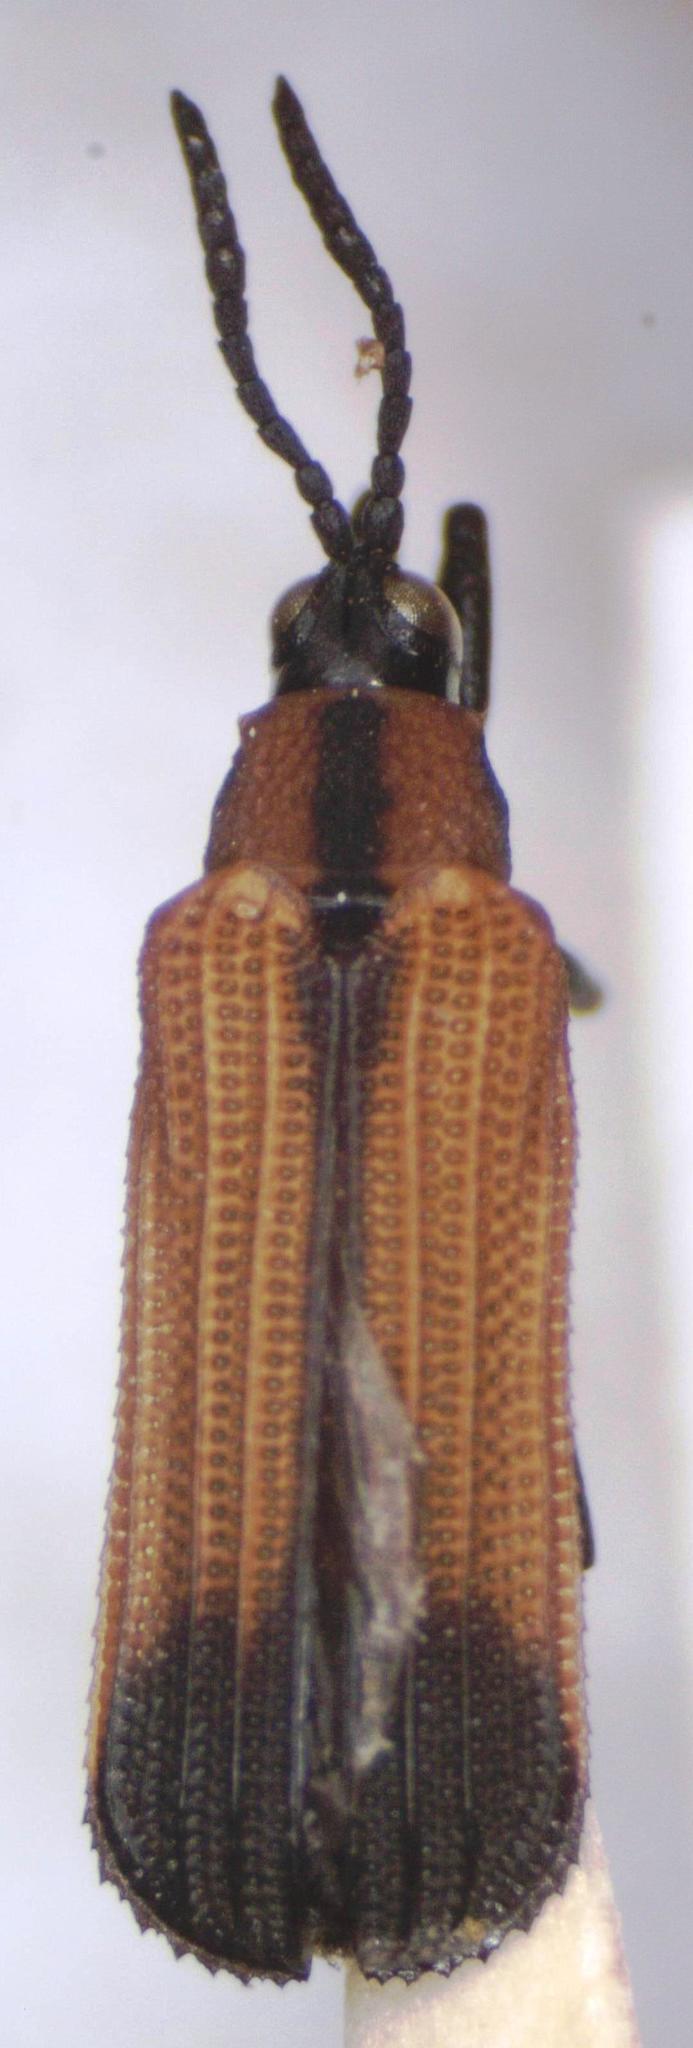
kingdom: Animalia
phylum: Arthropoda
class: Insecta
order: Coleoptera
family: Chrysomelidae
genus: Chalepus
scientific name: Chalepus assmanni
